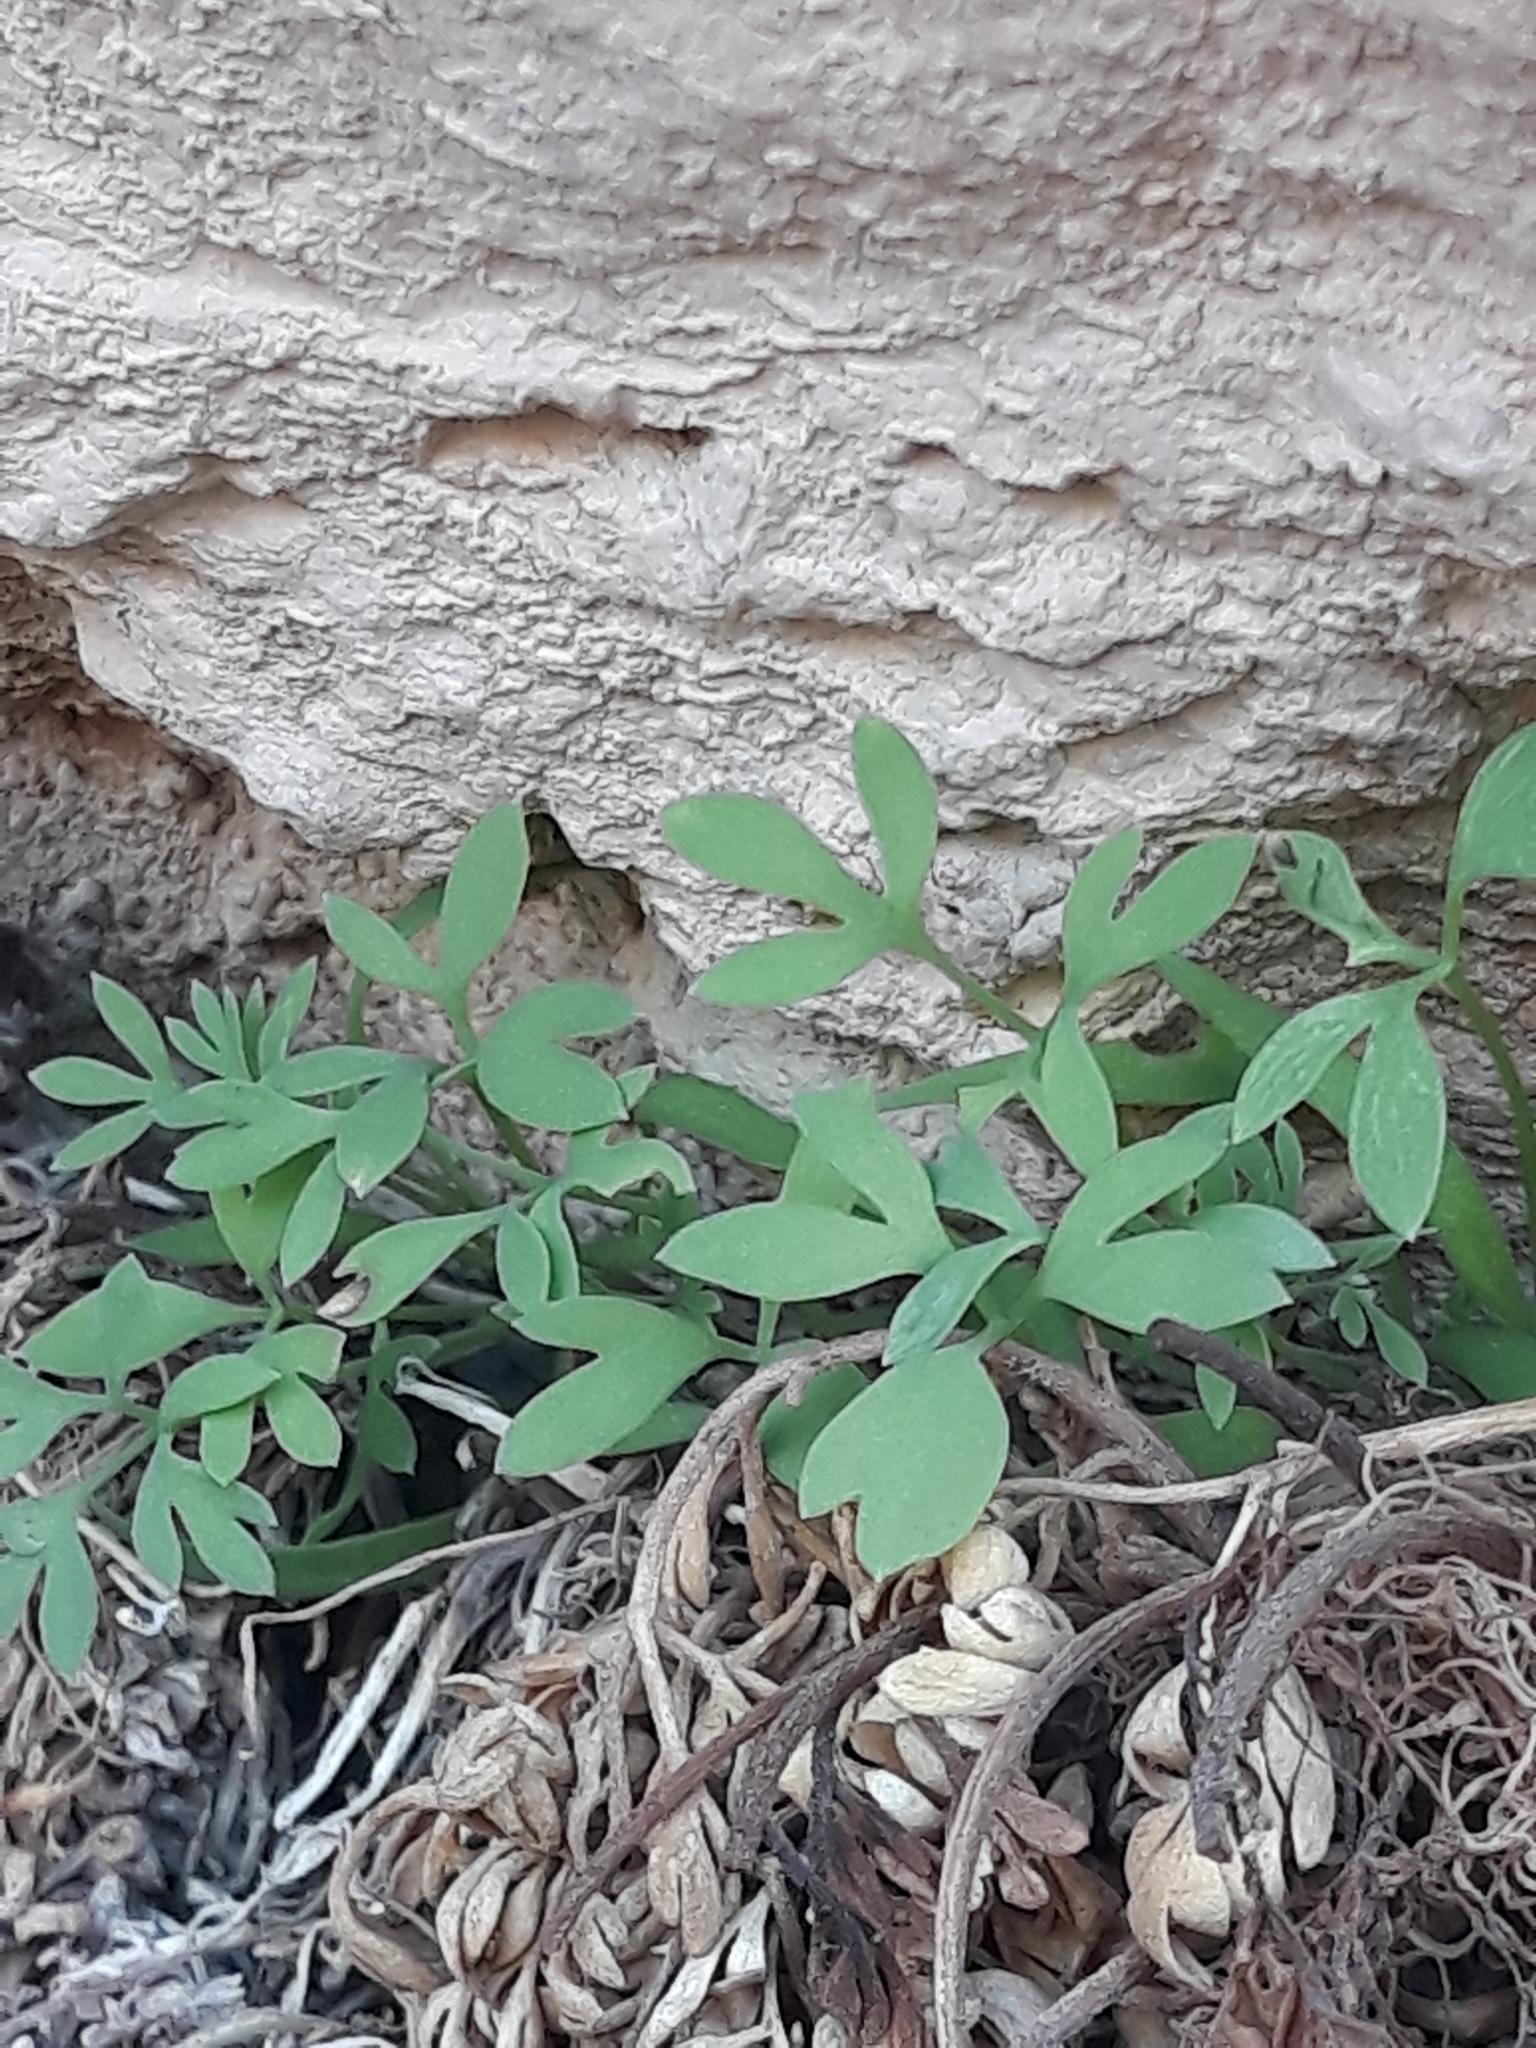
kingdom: Plantae
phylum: Tracheophyta
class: Magnoliopsida
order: Ranunculales
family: Papaveraceae
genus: Rupicapnos
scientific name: Rupicapnos numidica
